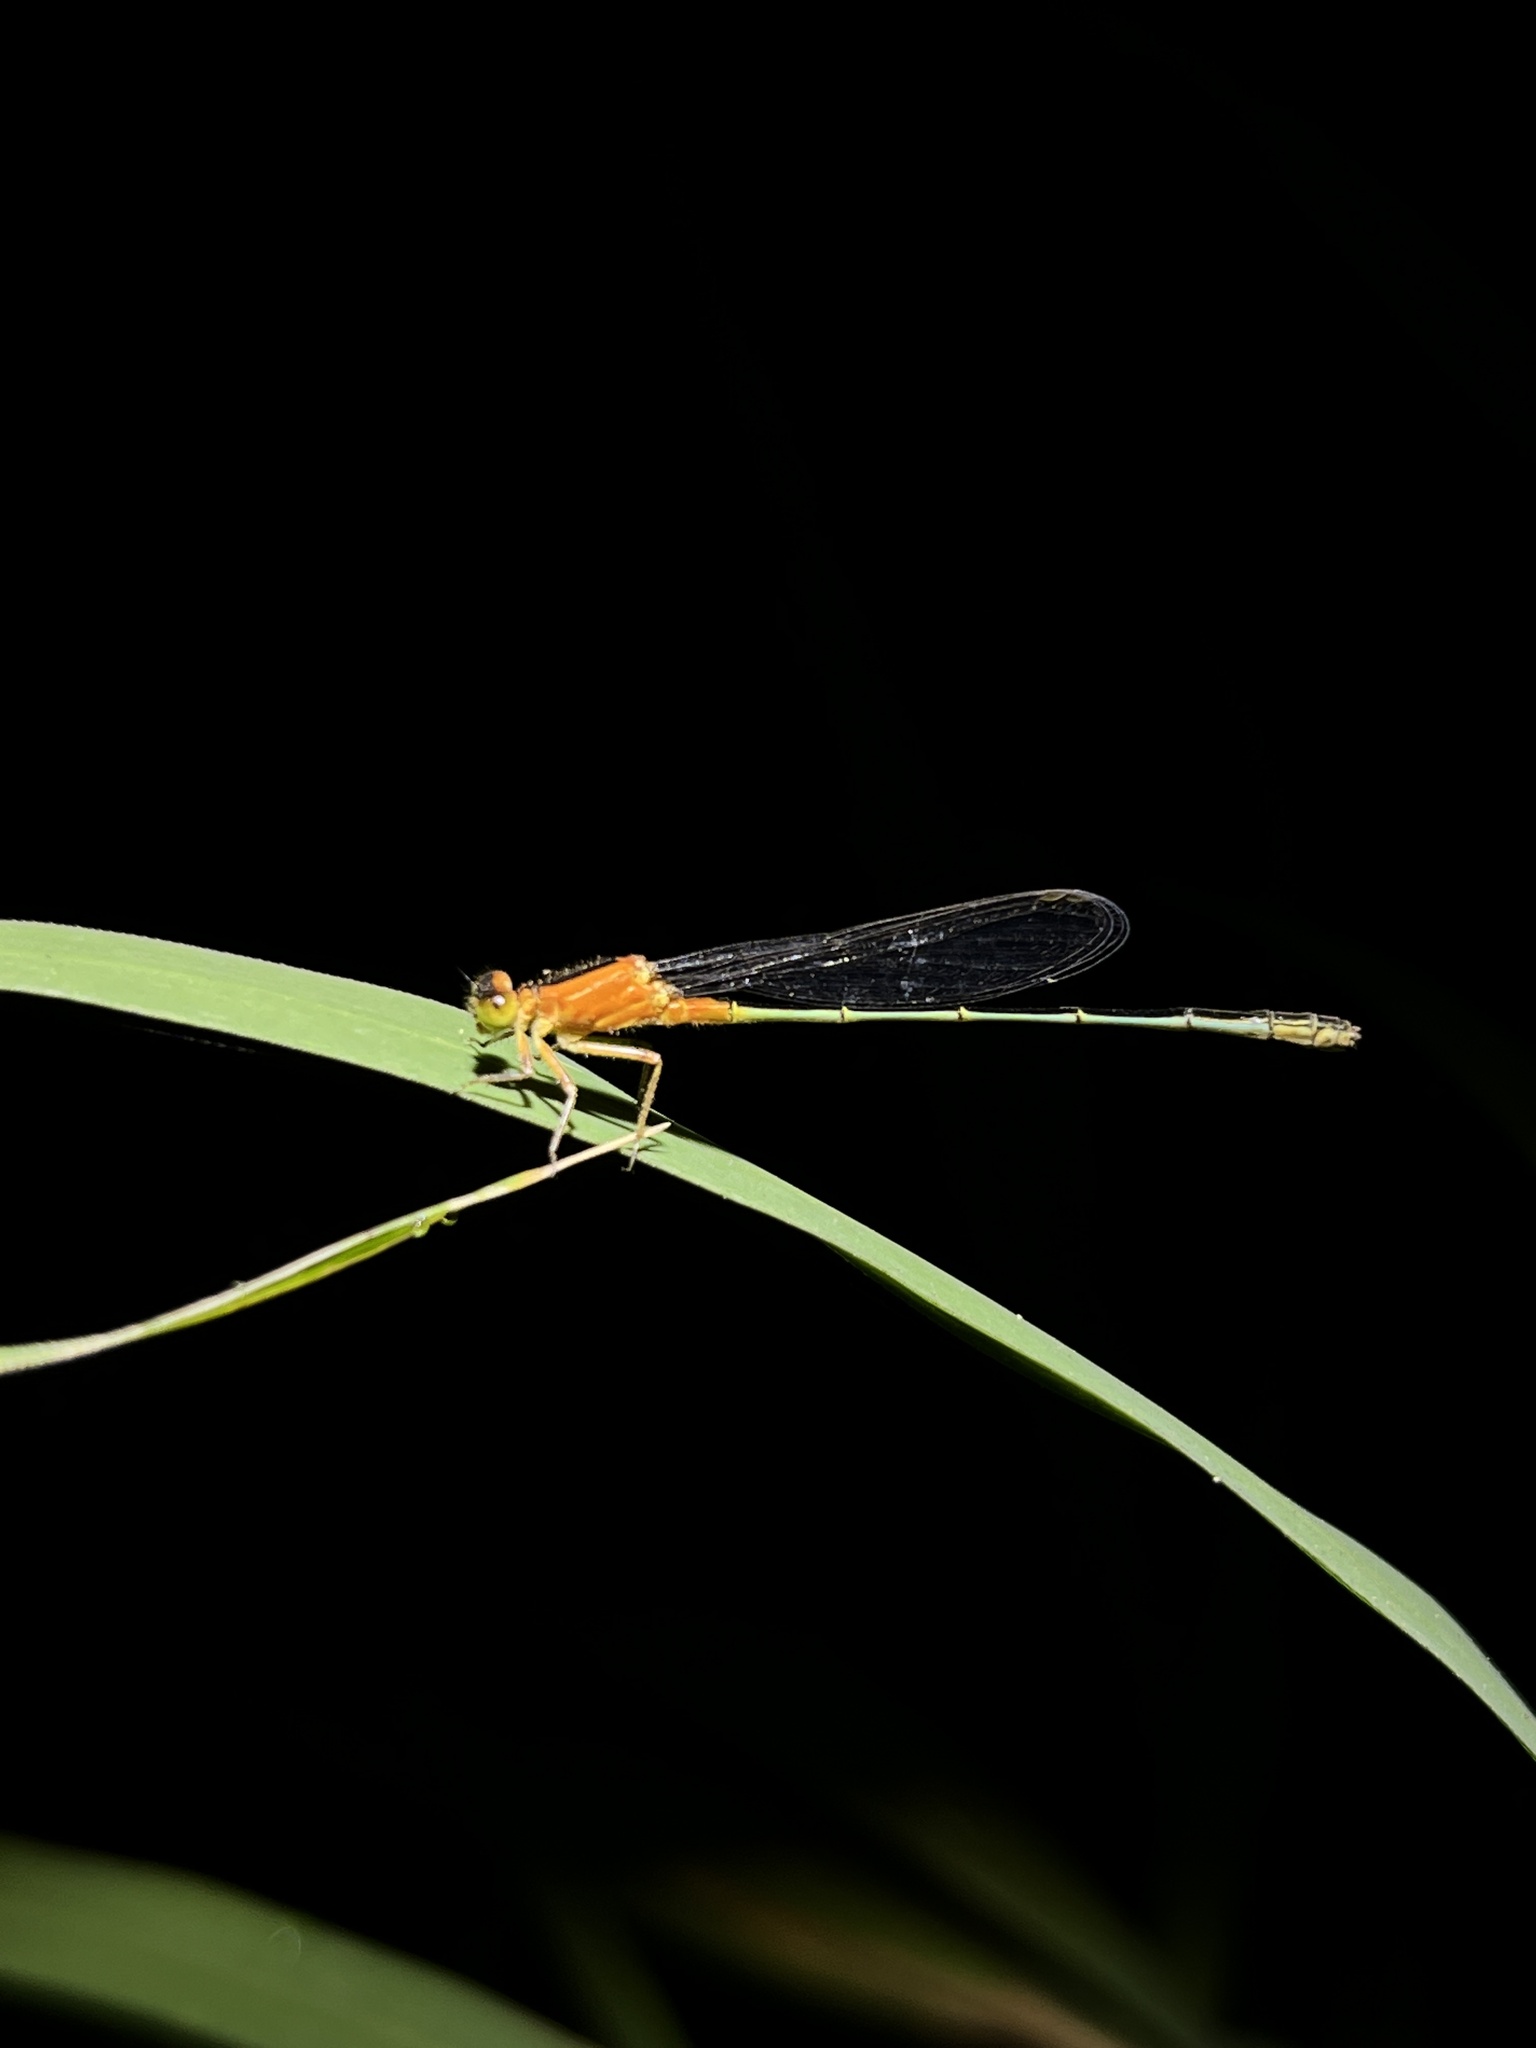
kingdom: Animalia
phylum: Arthropoda
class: Insecta
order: Odonata
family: Coenagrionidae
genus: Ischnura
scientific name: Ischnura senegalensis
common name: Tropical bluetail
